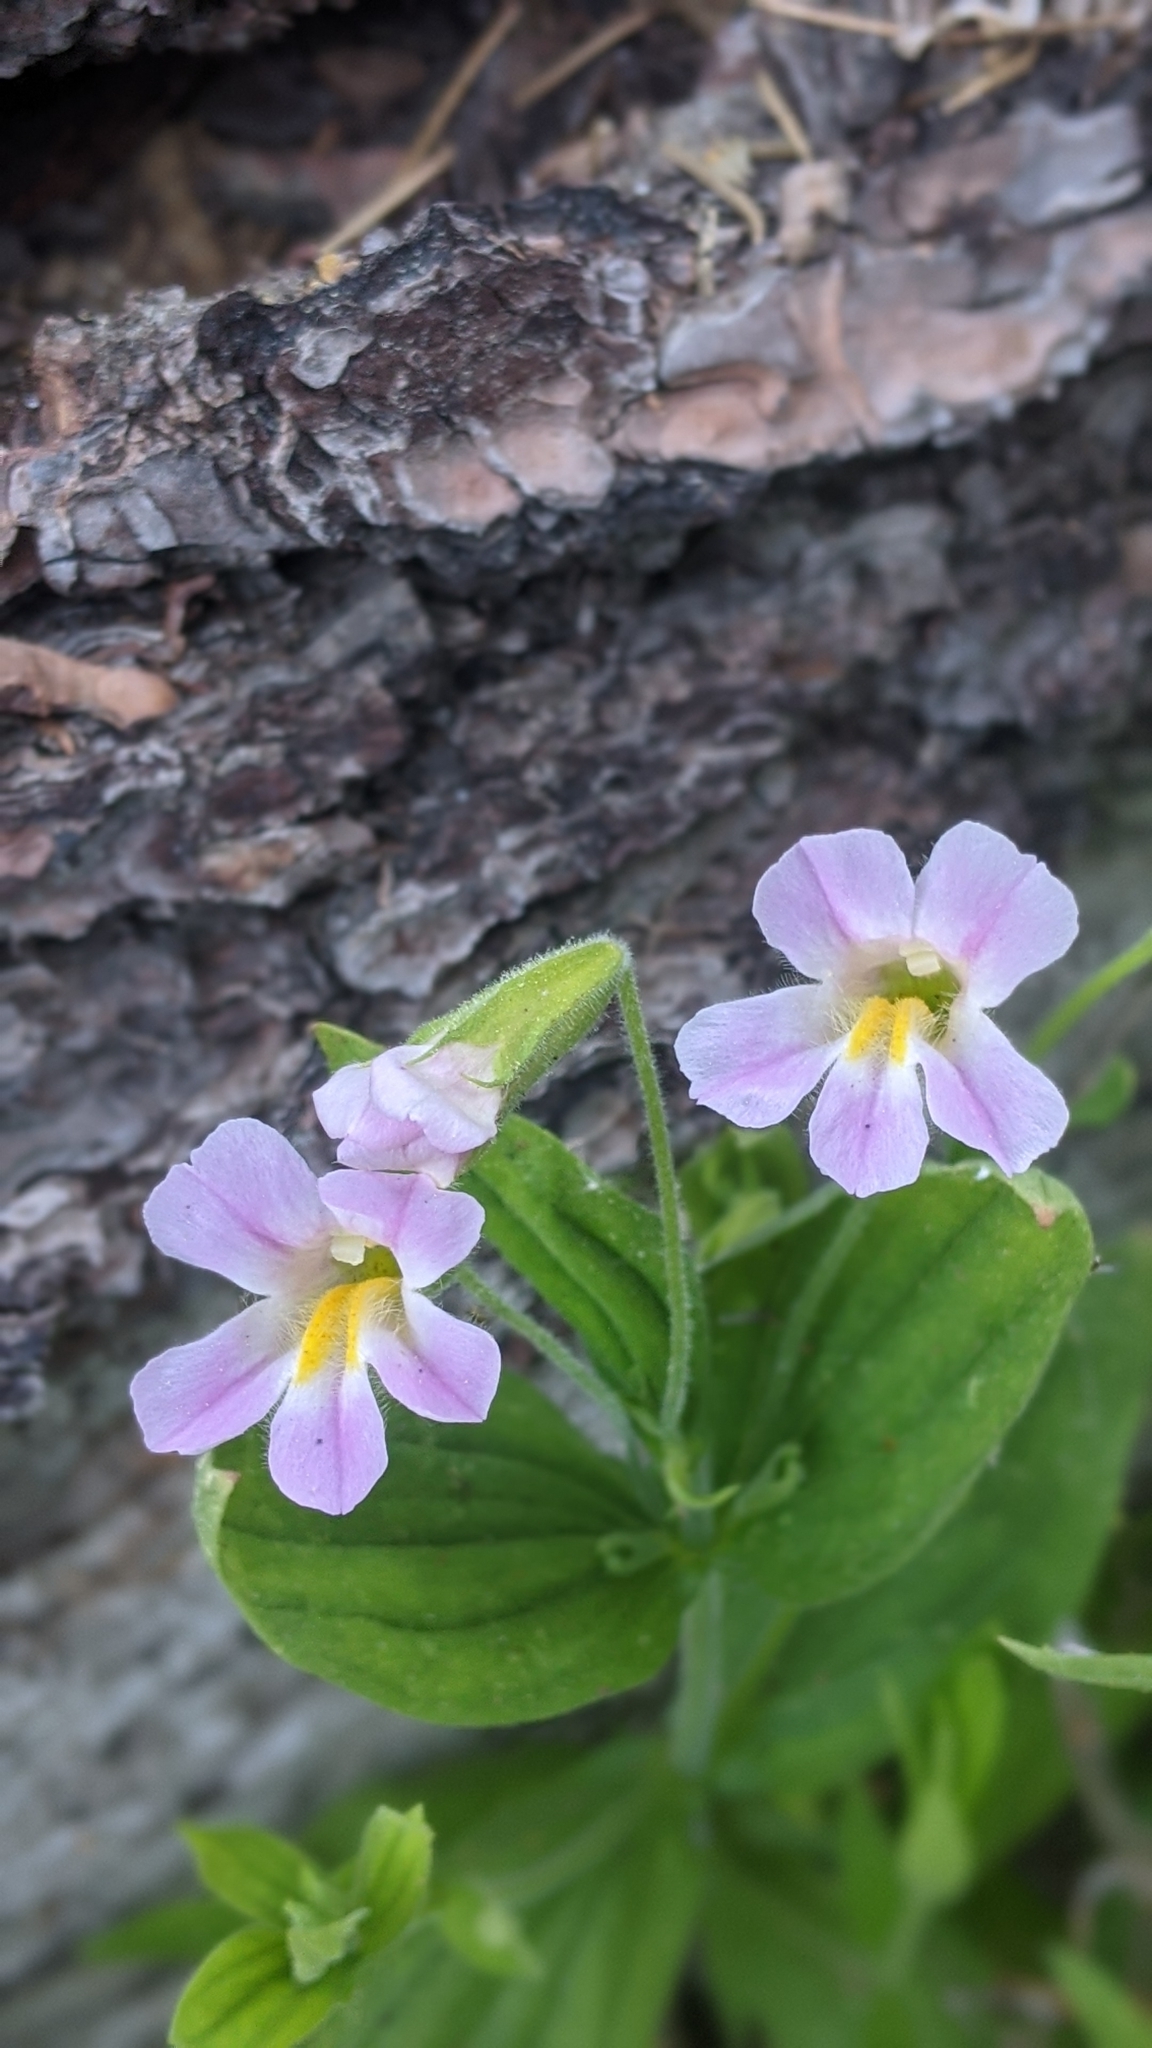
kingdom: Plantae
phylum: Tracheophyta
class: Magnoliopsida
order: Lamiales
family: Phrymaceae
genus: Erythranthe
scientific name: Erythranthe erubescens
